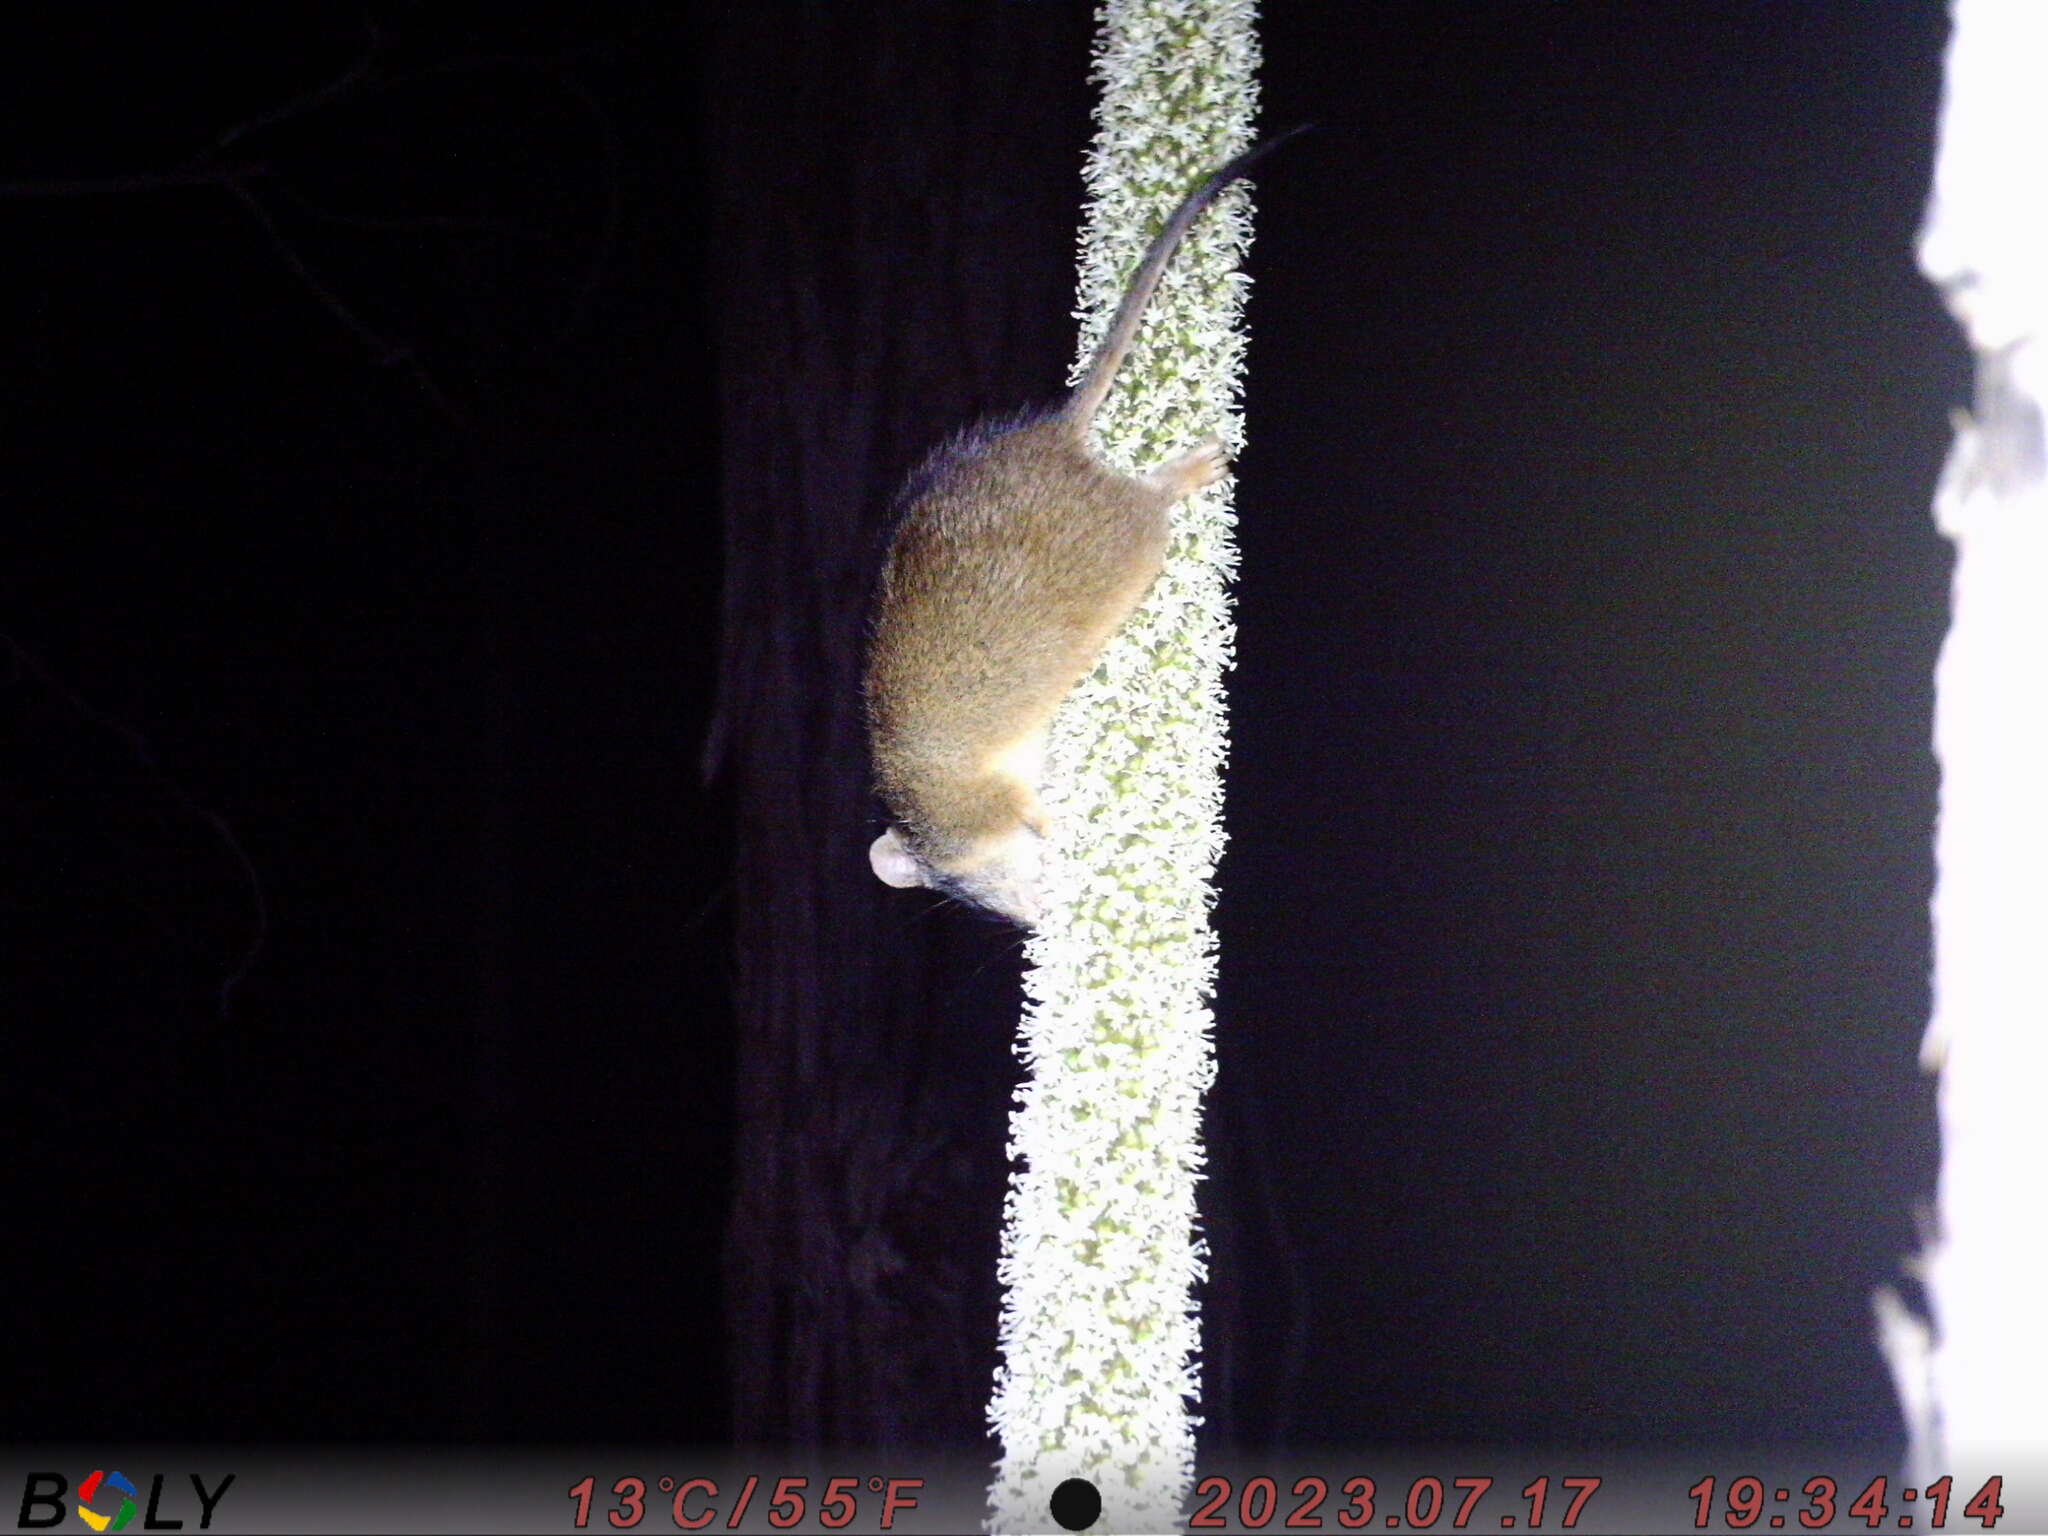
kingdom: Animalia
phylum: Chordata
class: Mammalia
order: Dasyuromorphia
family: Dasyuridae
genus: Antechinus
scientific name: Antechinus flavipes
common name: Yellow-footed antechinus
